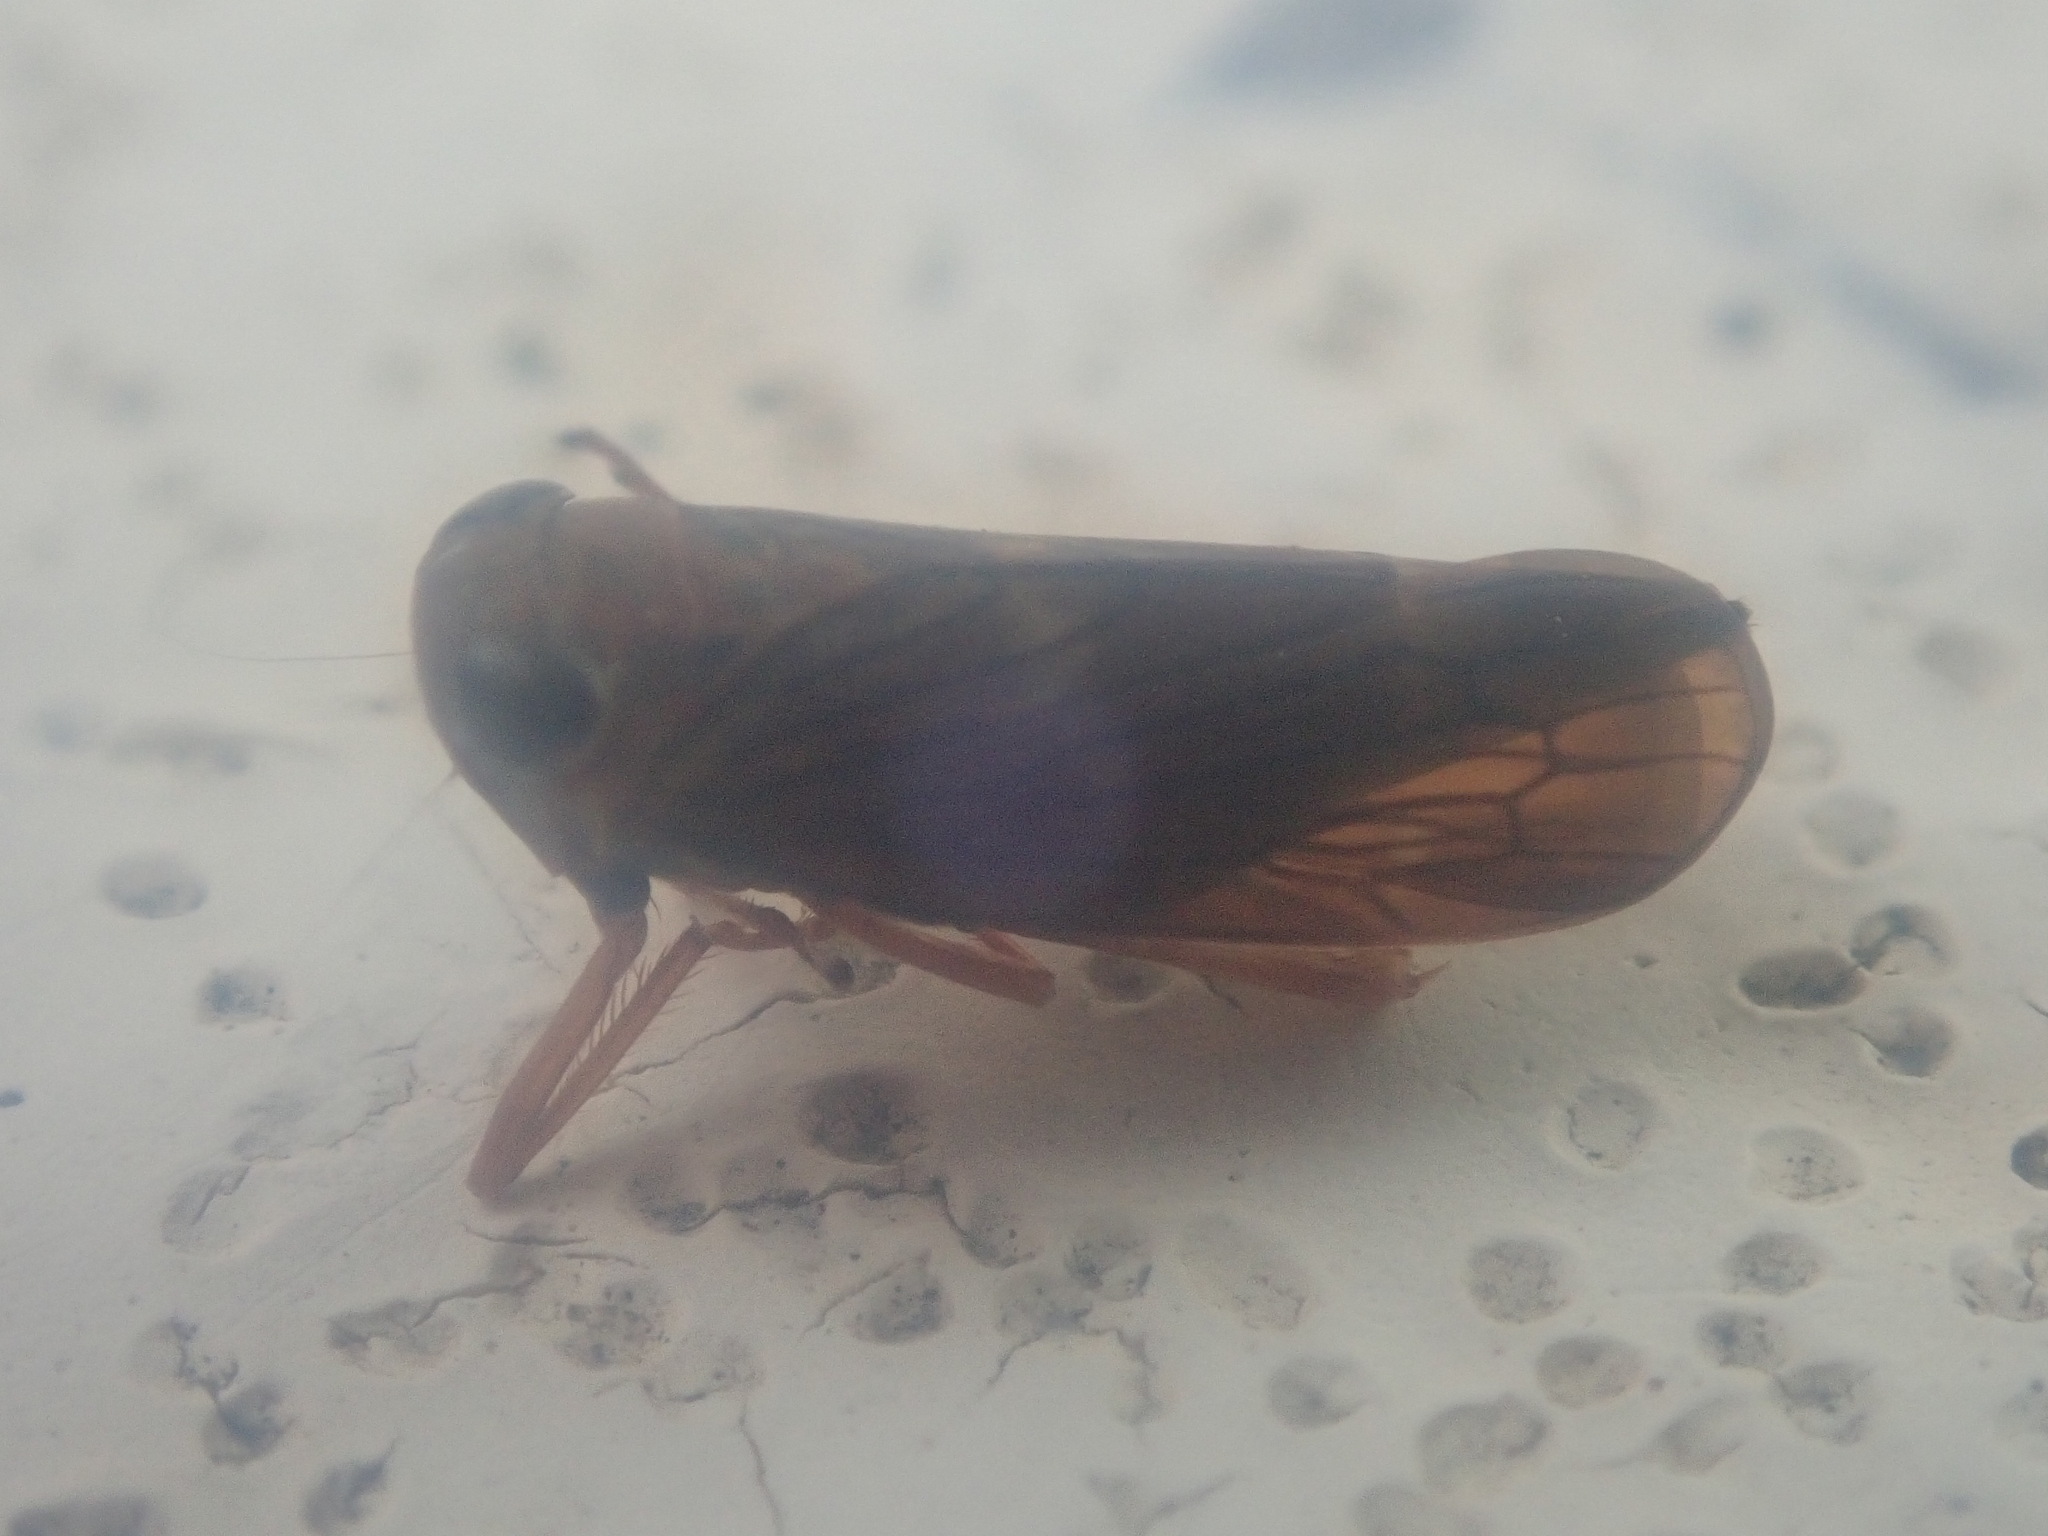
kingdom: Animalia
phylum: Arthropoda
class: Insecta
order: Hemiptera
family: Cicadellidae
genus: Jikradia
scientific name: Jikradia olitoria
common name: Coppery leafhopper
